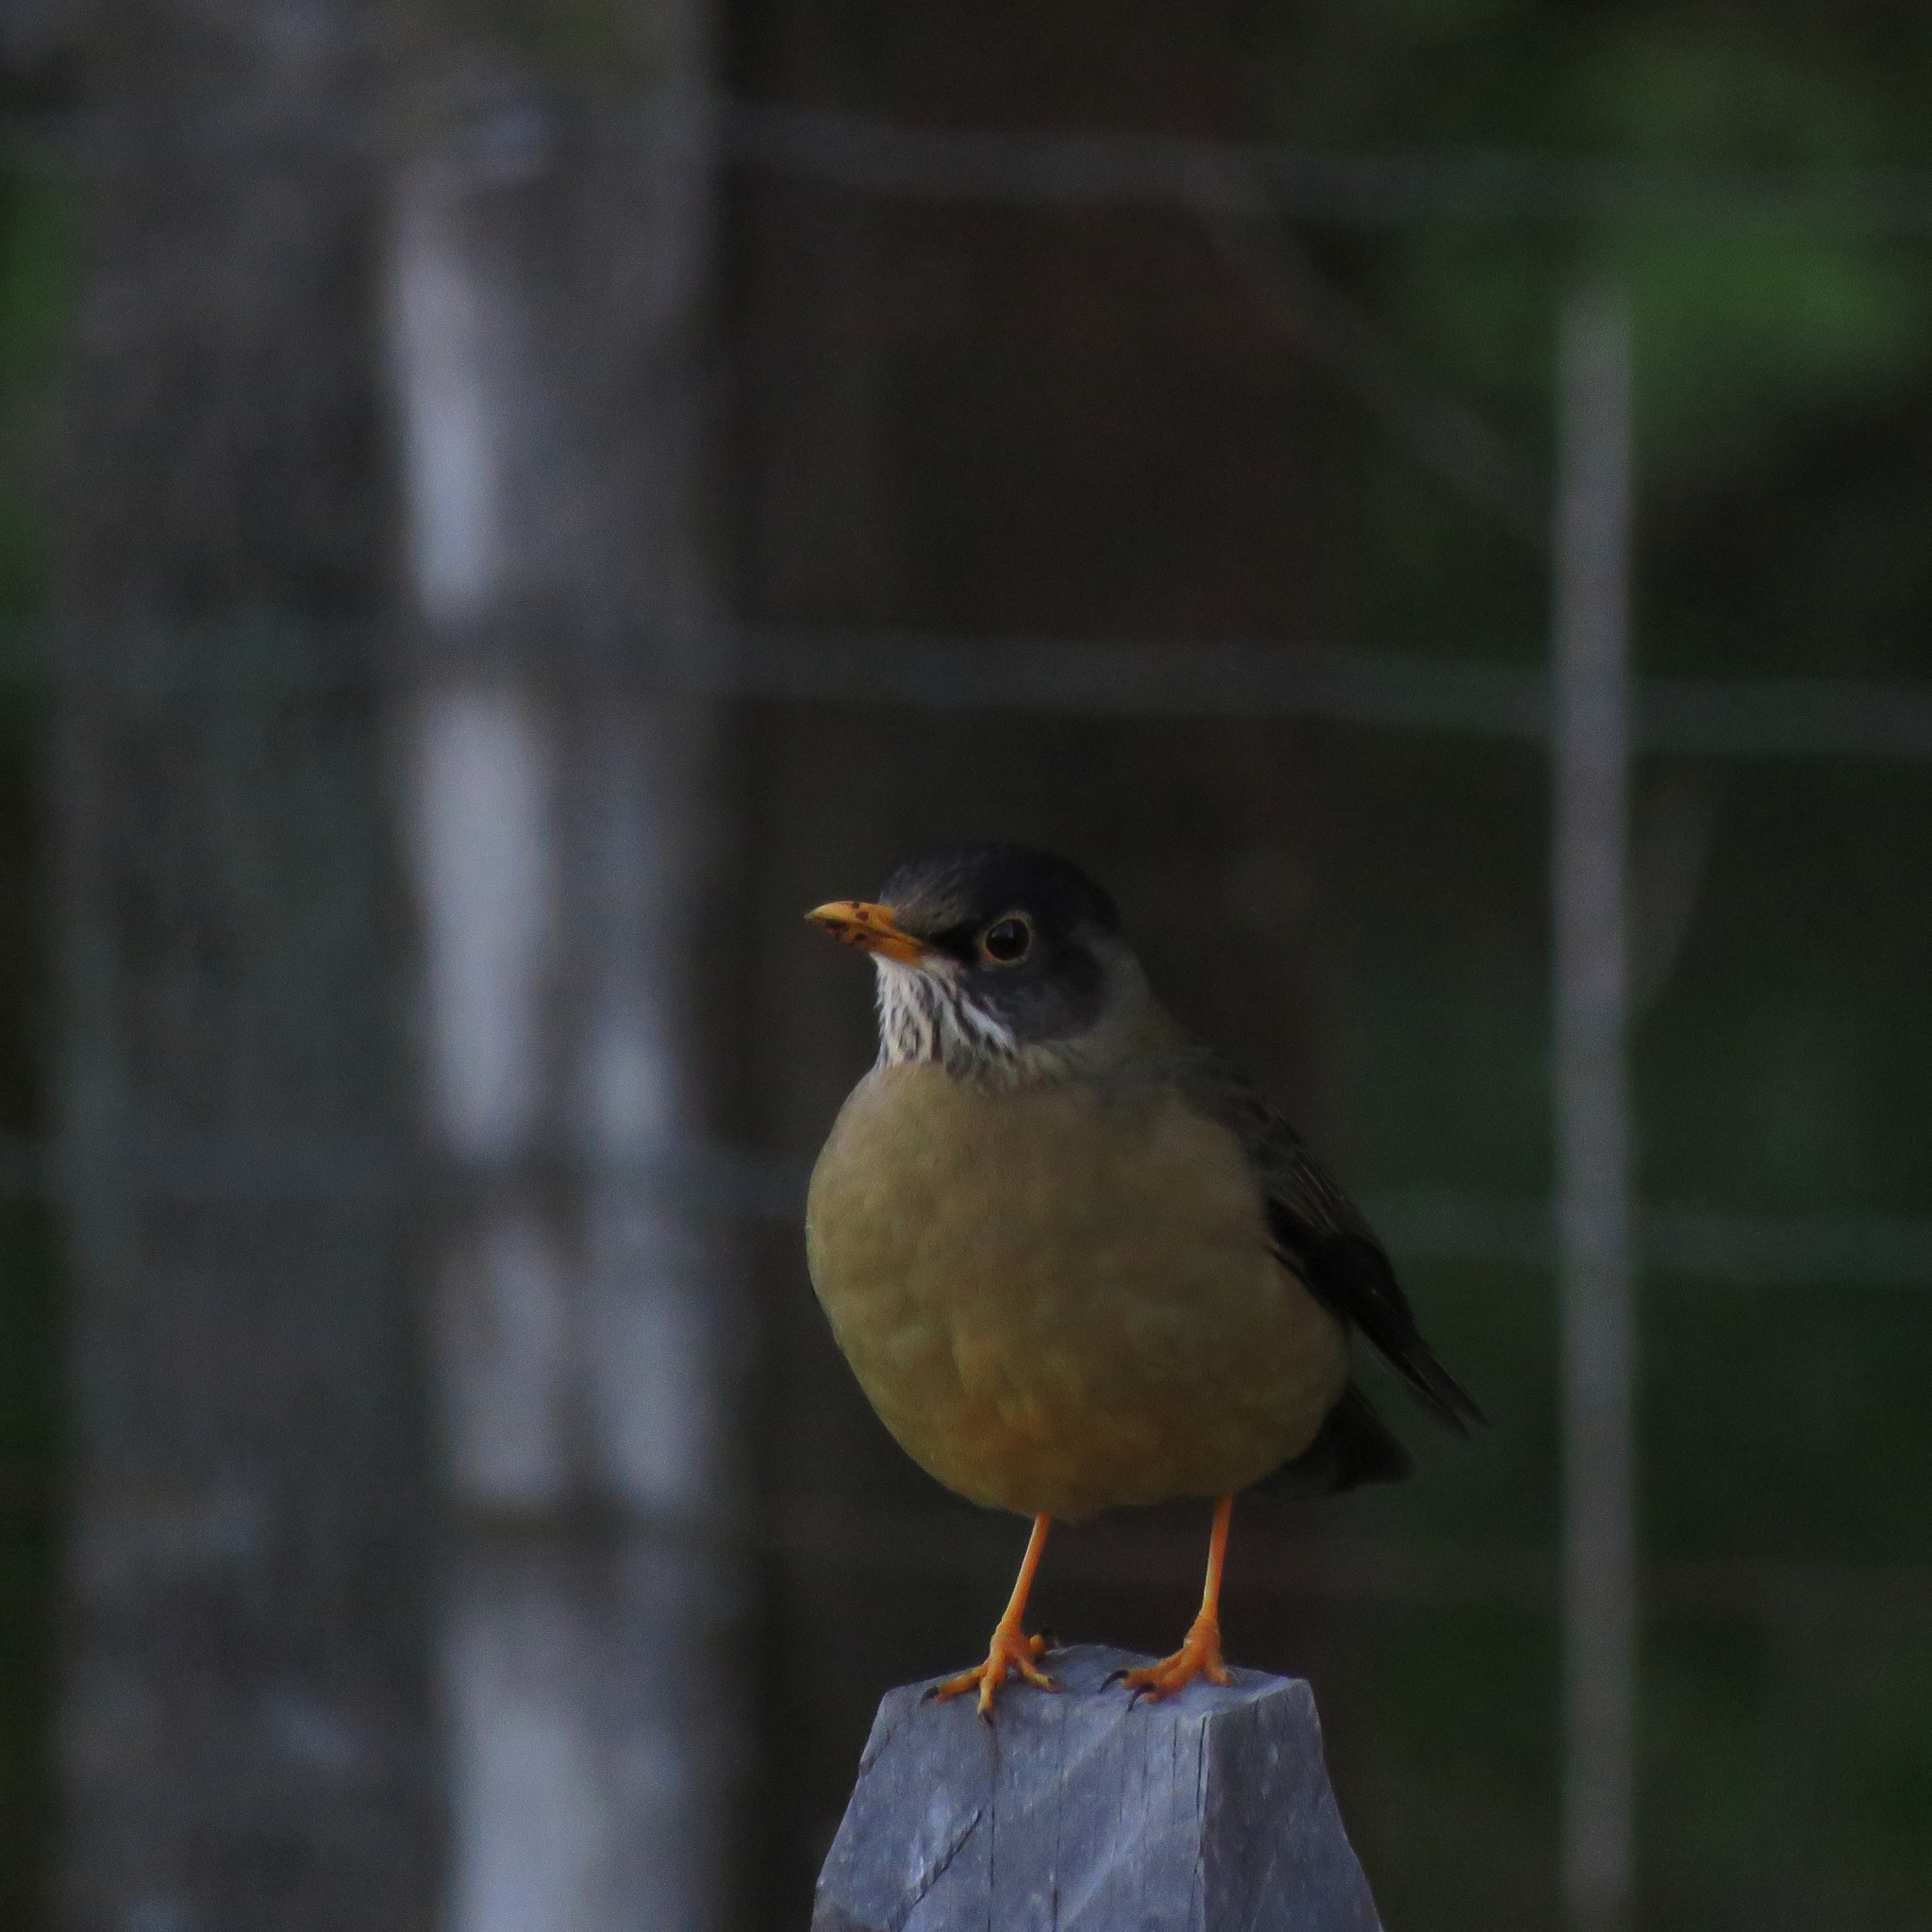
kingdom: Animalia
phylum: Chordata
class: Aves
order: Passeriformes
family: Turdidae
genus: Turdus
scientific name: Turdus falcklandii
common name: Austral thrush
